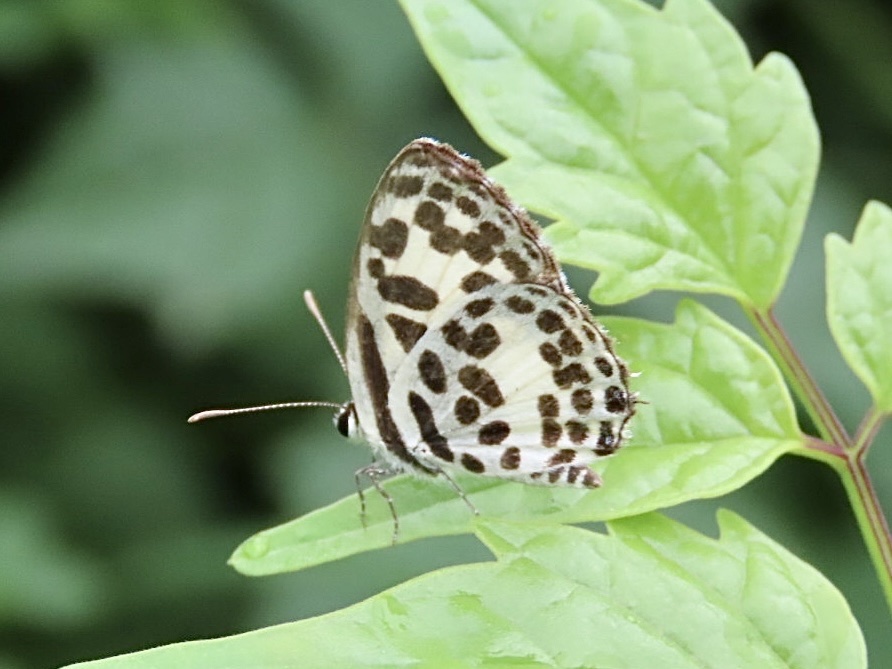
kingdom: Animalia
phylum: Arthropoda
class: Insecta
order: Lepidoptera
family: Lycaenidae
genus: Castalius
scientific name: Castalius rosimon
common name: Common pierrot
